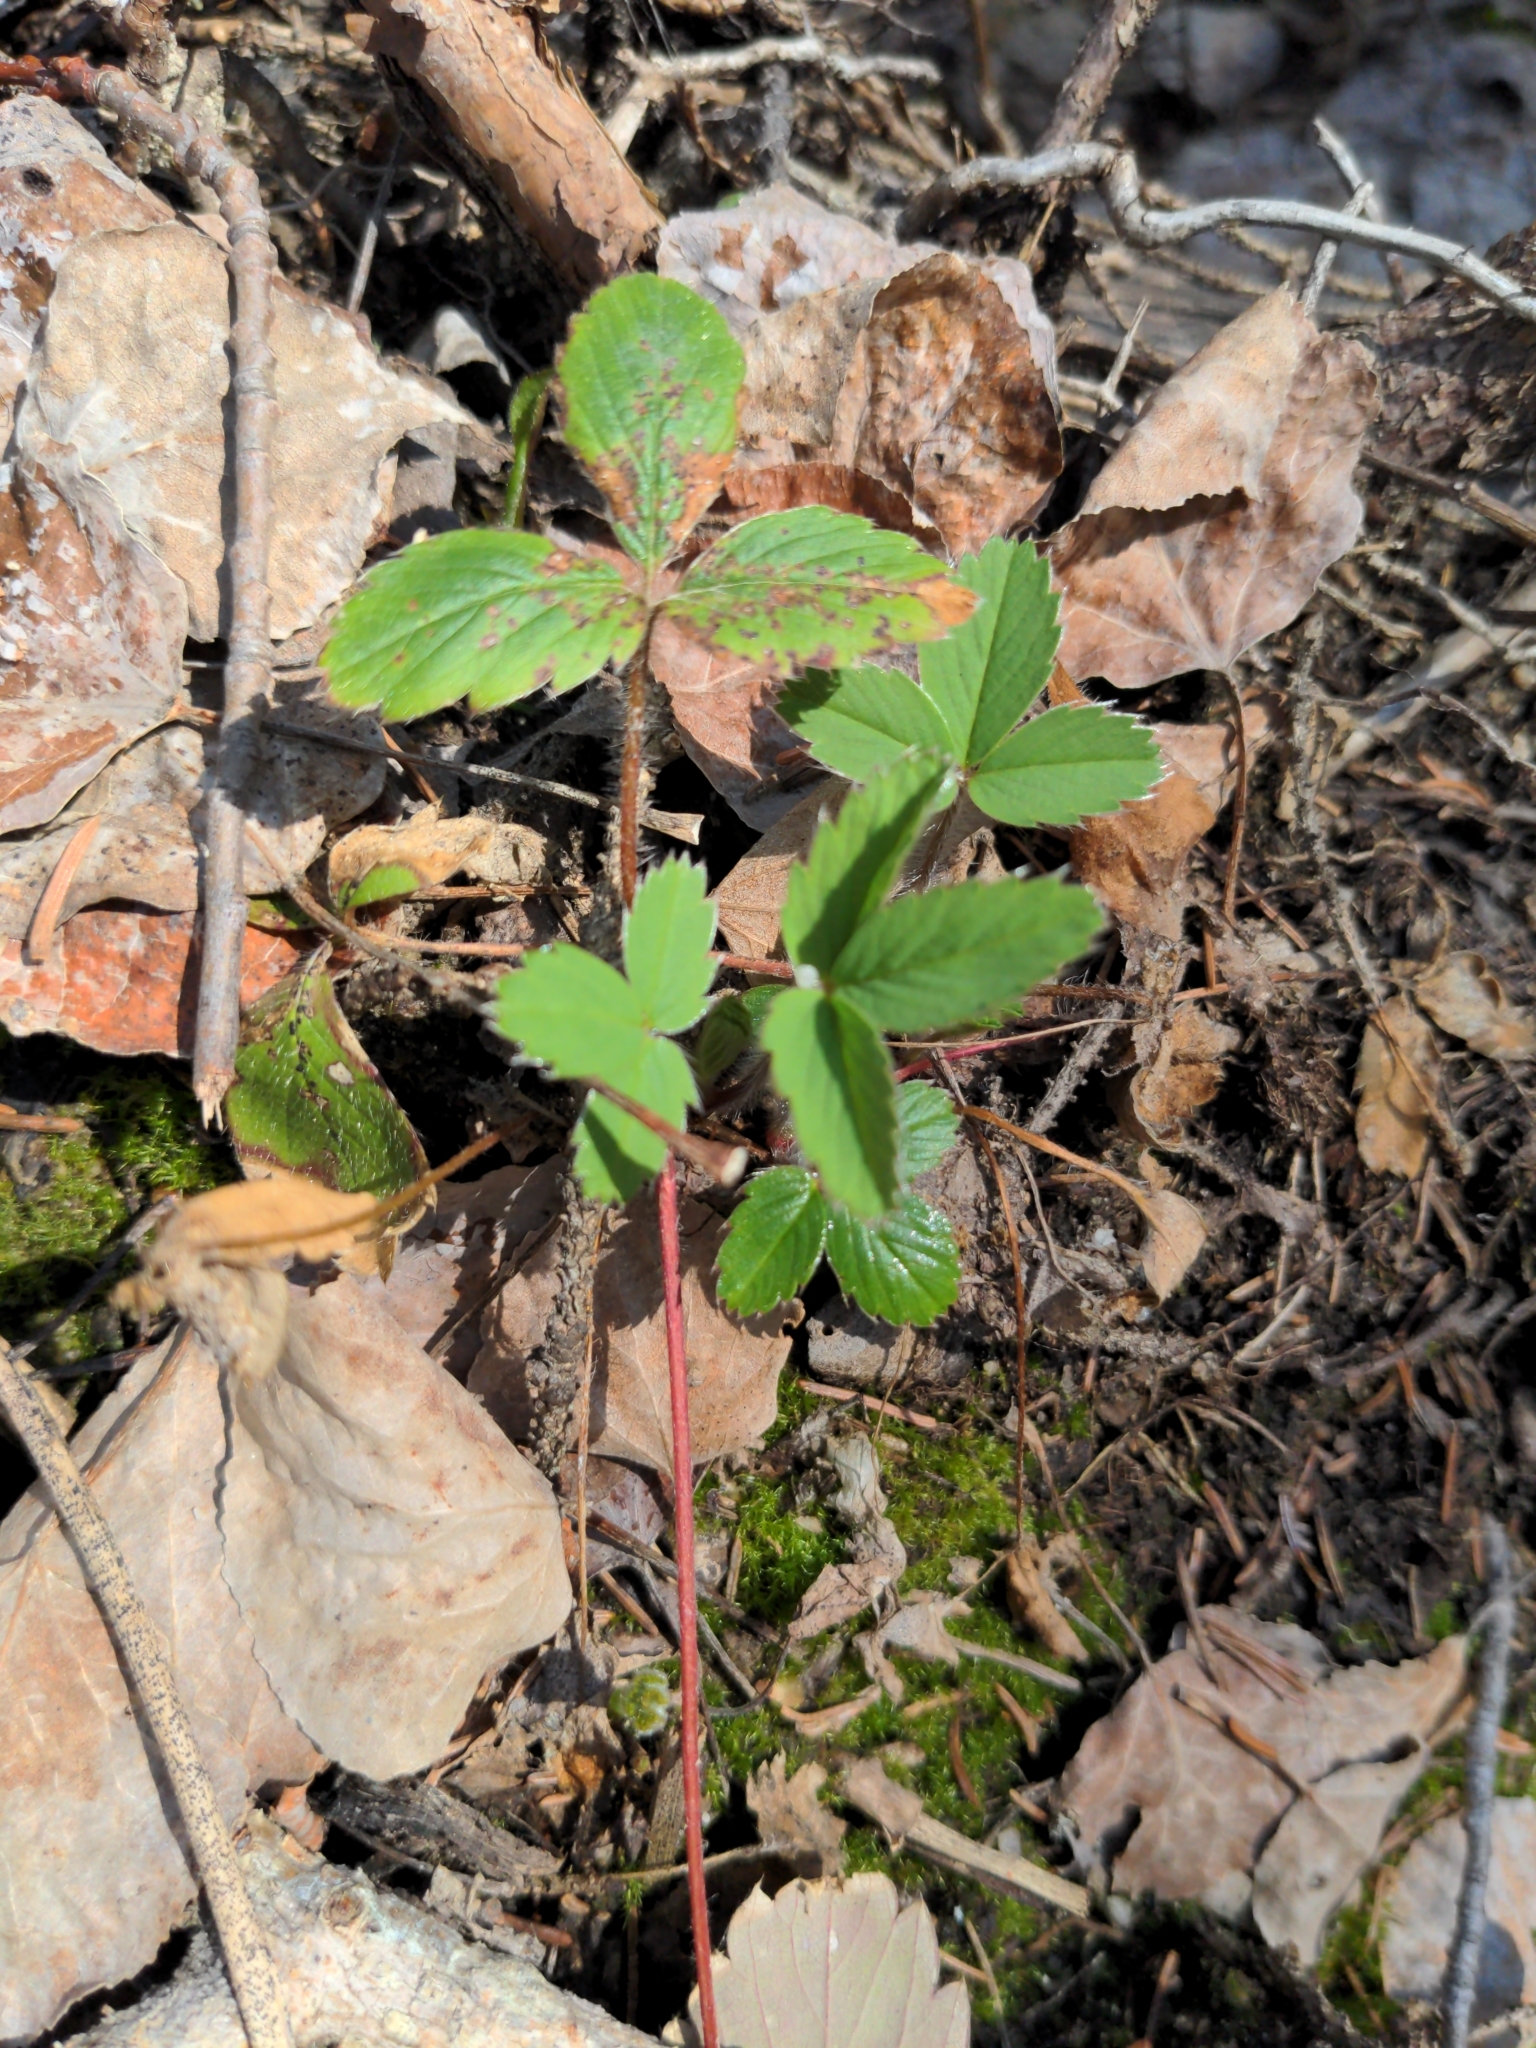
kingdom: Plantae
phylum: Tracheophyta
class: Magnoliopsida
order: Rosales
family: Rosaceae
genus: Fragaria
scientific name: Fragaria virginiana
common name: Thickleaved wild strawberry
